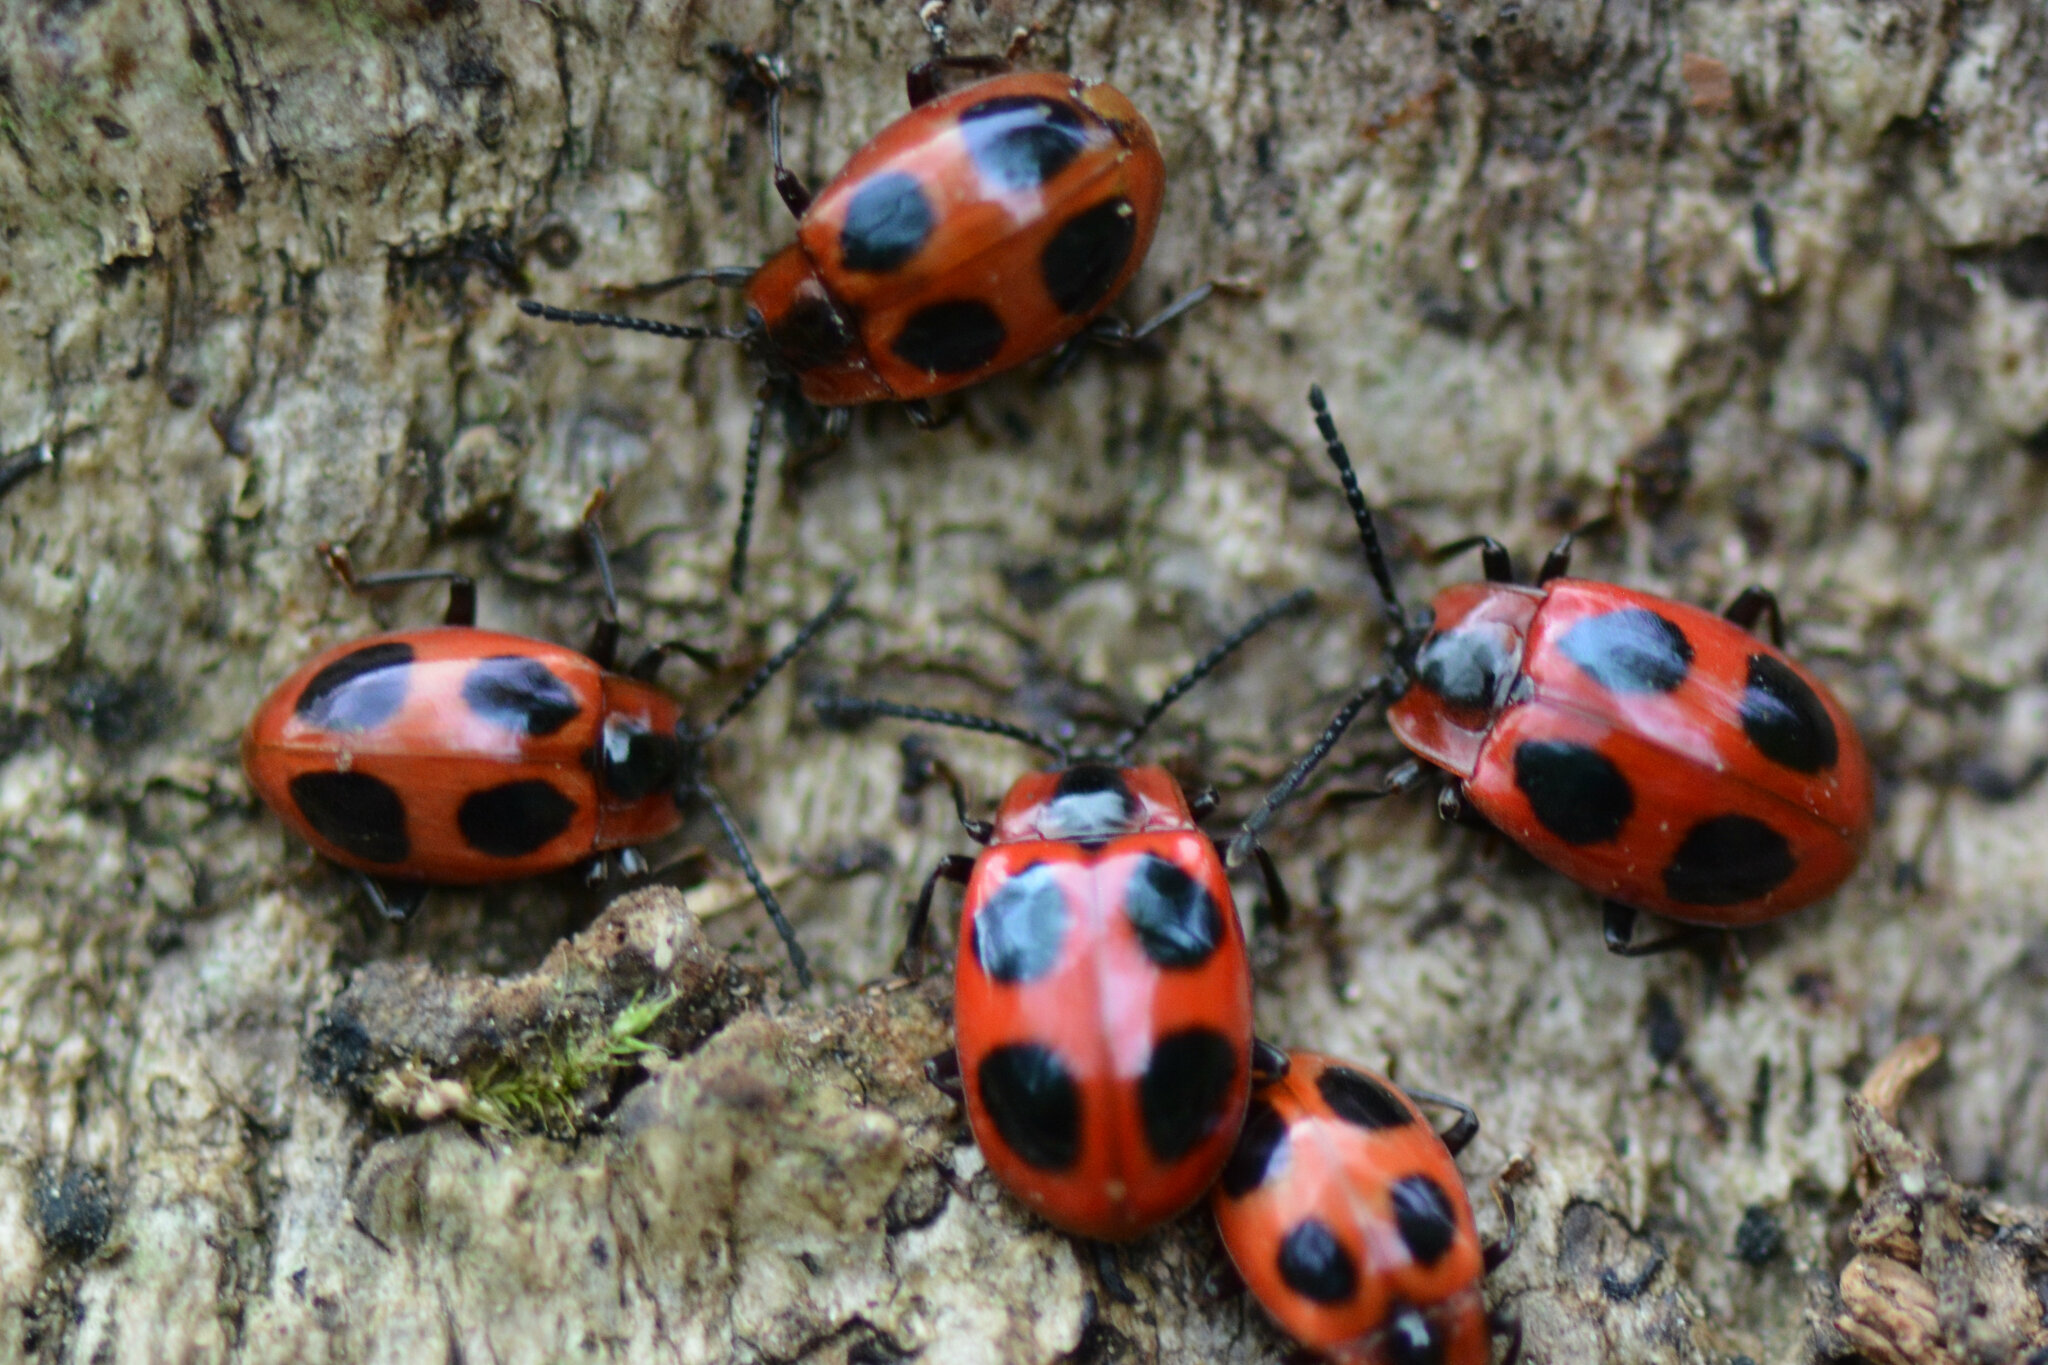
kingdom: Animalia
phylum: Arthropoda
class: Insecta
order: Coleoptera
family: Endomychidae
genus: Endomychus
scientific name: Endomychus coccineus
